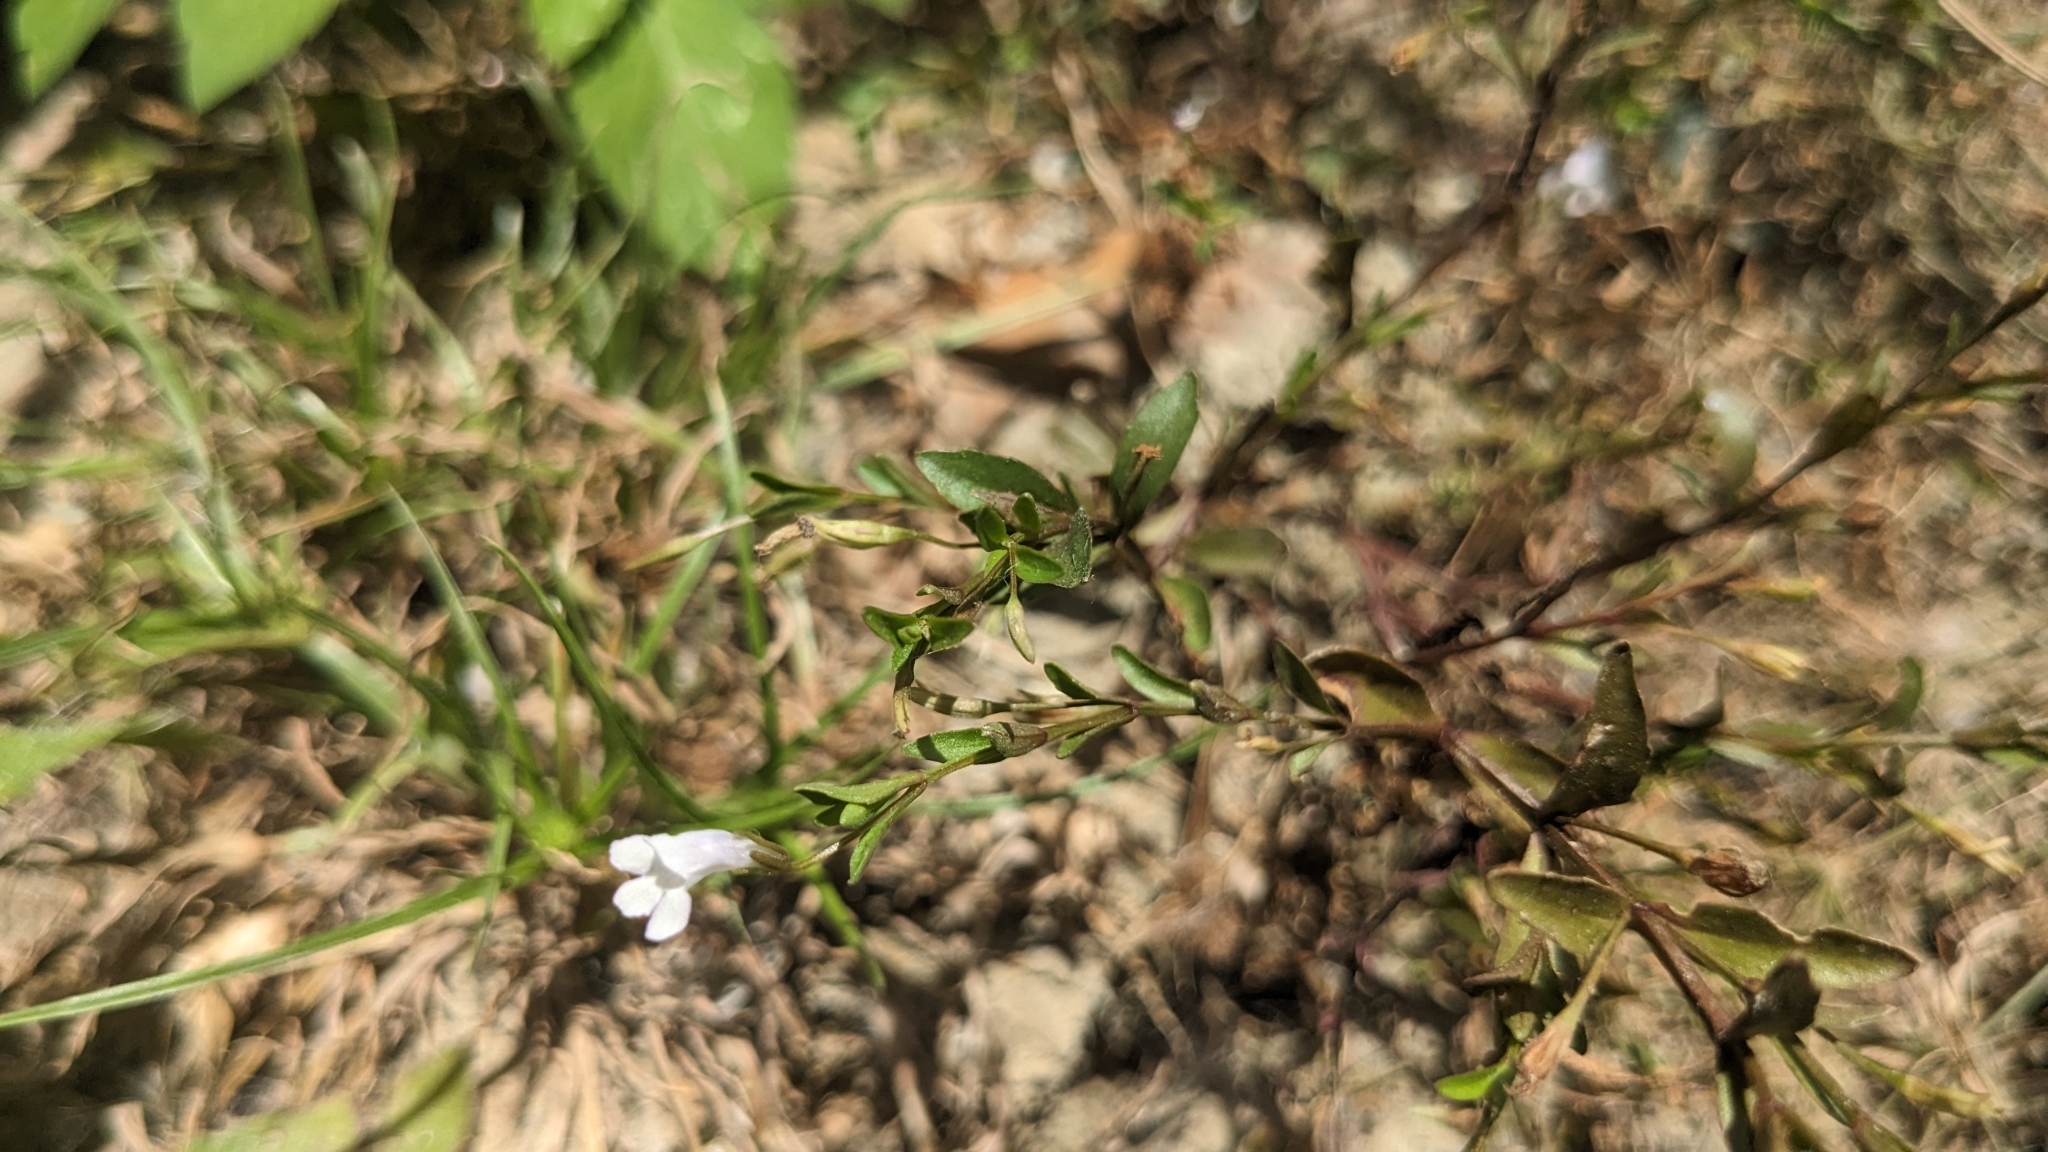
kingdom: Plantae
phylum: Tracheophyta
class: Magnoliopsida
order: Lamiales
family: Linderniaceae
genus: Lindernia
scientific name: Lindernia dubia
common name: Annual false pimpernel
